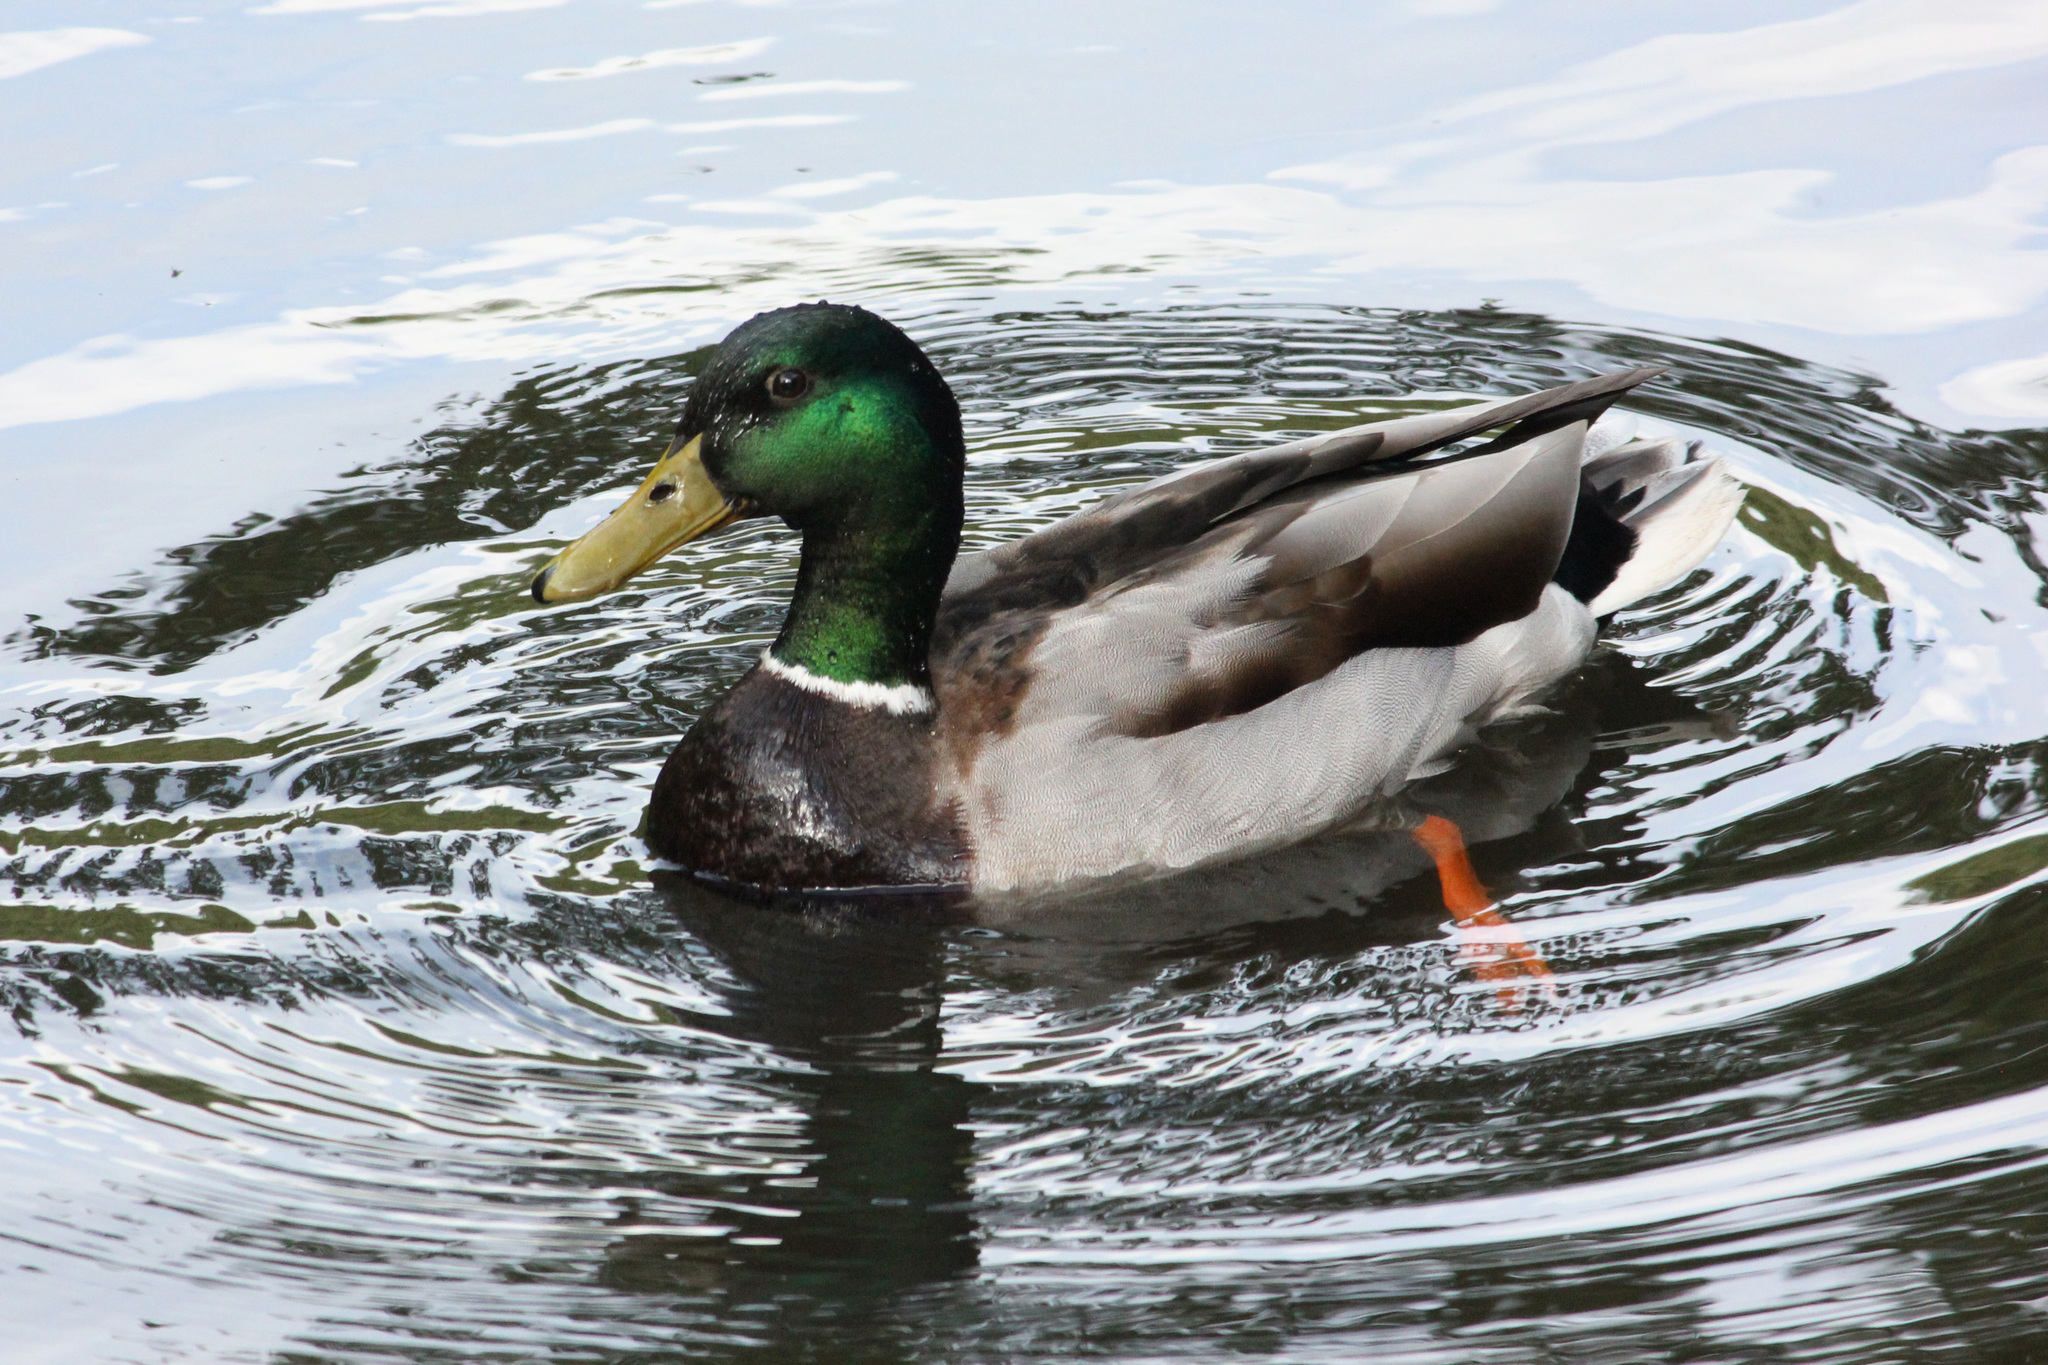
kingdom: Animalia
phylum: Chordata
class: Aves
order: Anseriformes
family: Anatidae
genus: Anas
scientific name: Anas platyrhynchos
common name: Mallard
